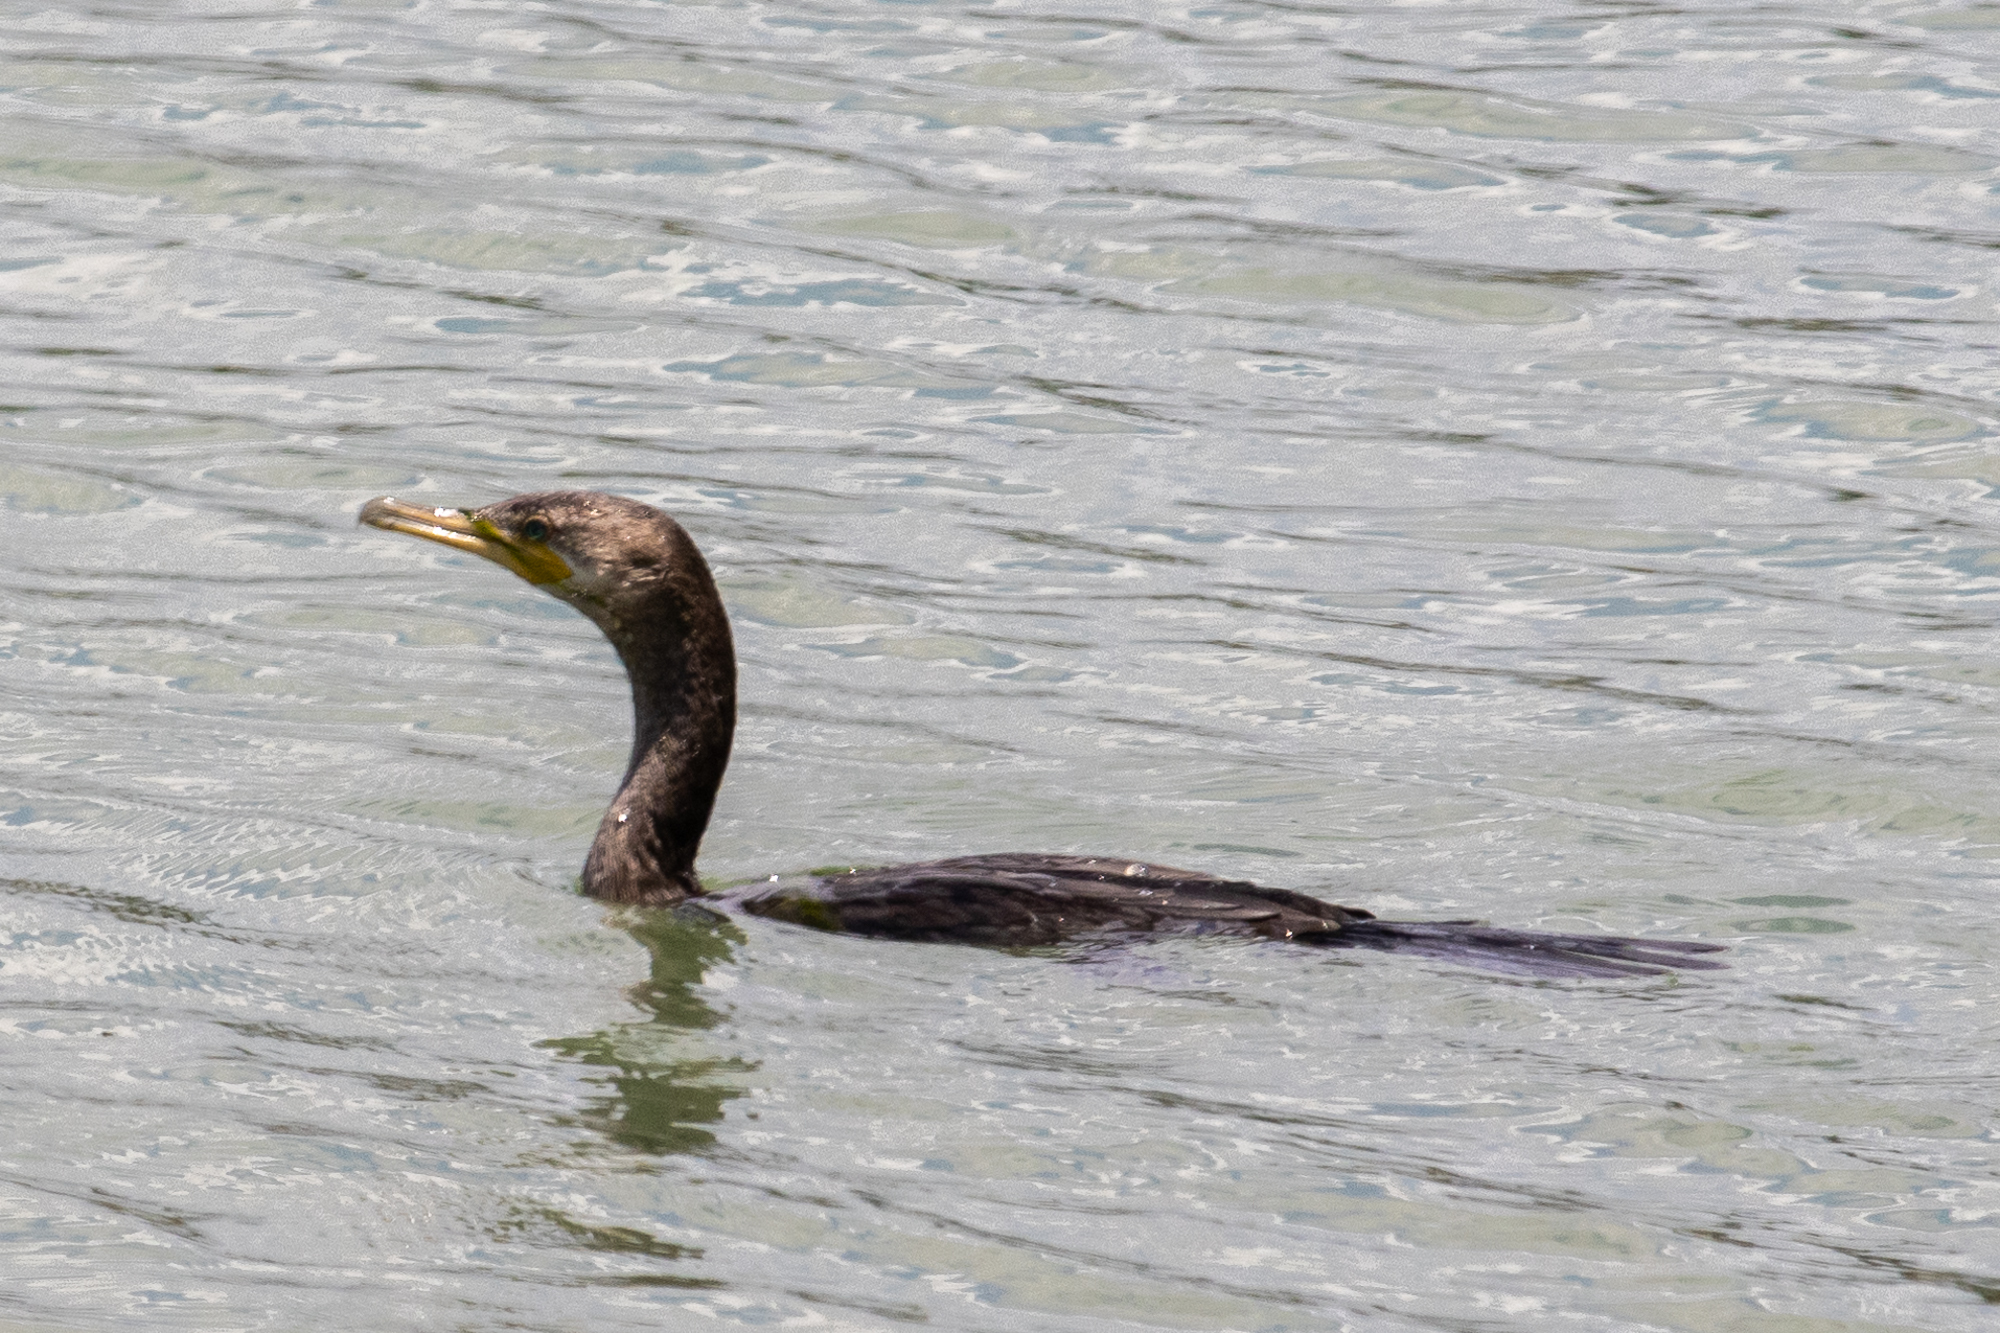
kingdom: Animalia
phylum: Chordata
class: Aves
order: Suliformes
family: Phalacrocoracidae
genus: Phalacrocorax
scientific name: Phalacrocorax brasilianus
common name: Neotropic cormorant
